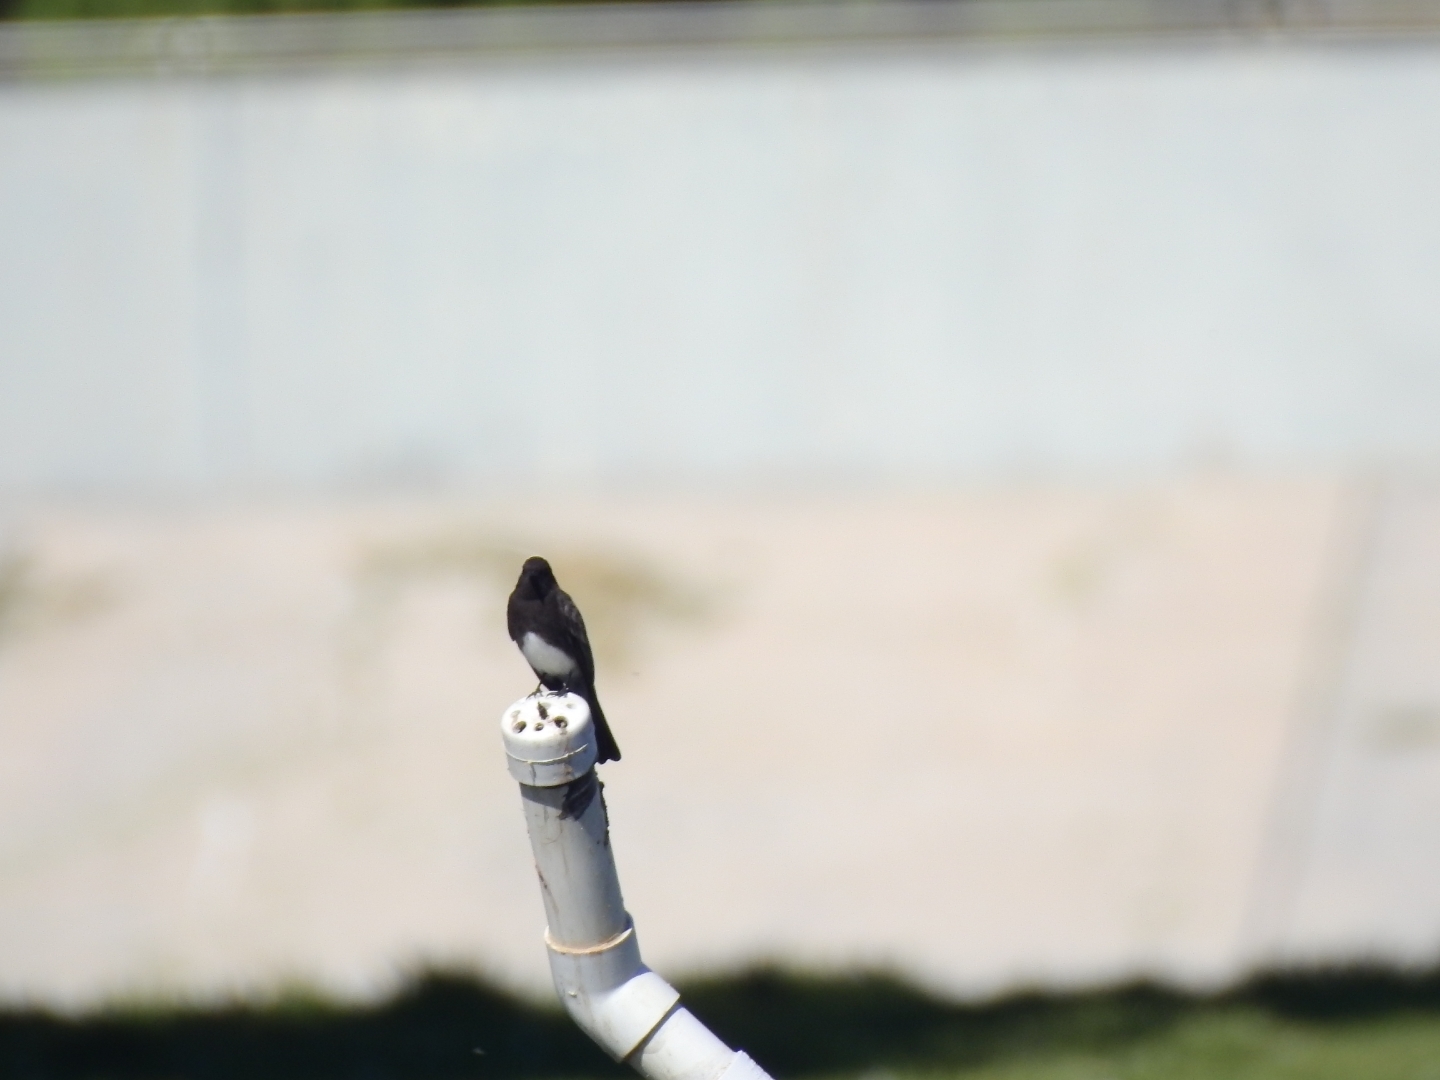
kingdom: Animalia
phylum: Chordata
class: Aves
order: Passeriformes
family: Tyrannidae
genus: Sayornis
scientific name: Sayornis nigricans
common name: Black phoebe
